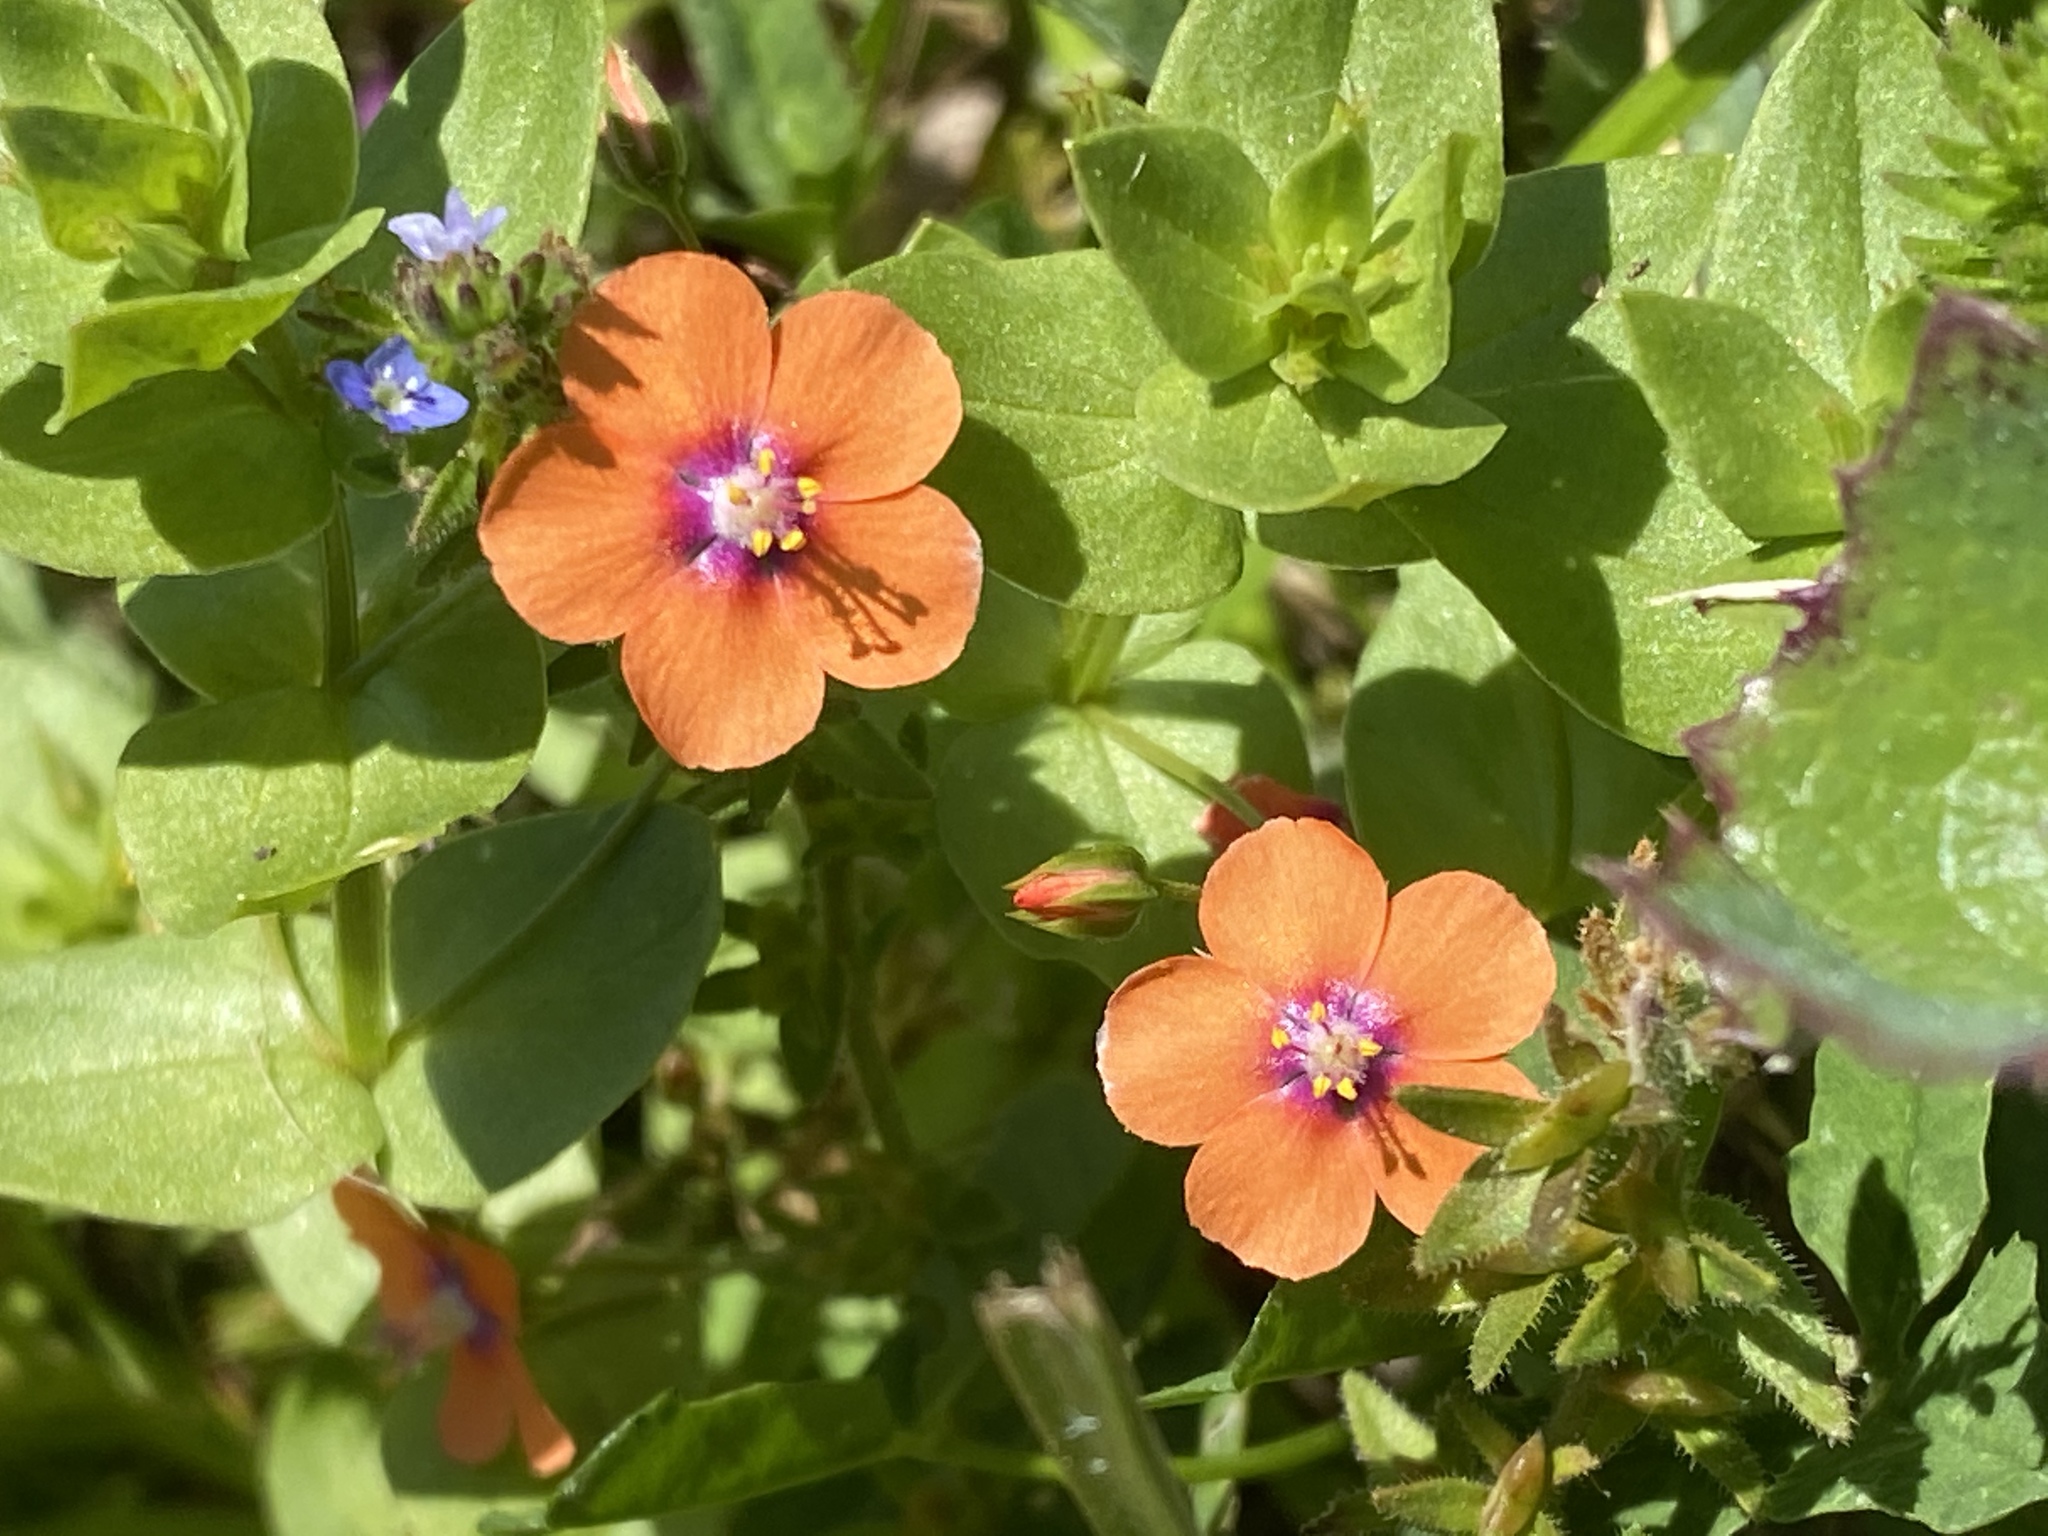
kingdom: Plantae
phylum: Tracheophyta
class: Magnoliopsida
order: Ericales
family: Primulaceae
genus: Lysimachia
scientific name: Lysimachia arvensis
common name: Scarlet pimpernel
